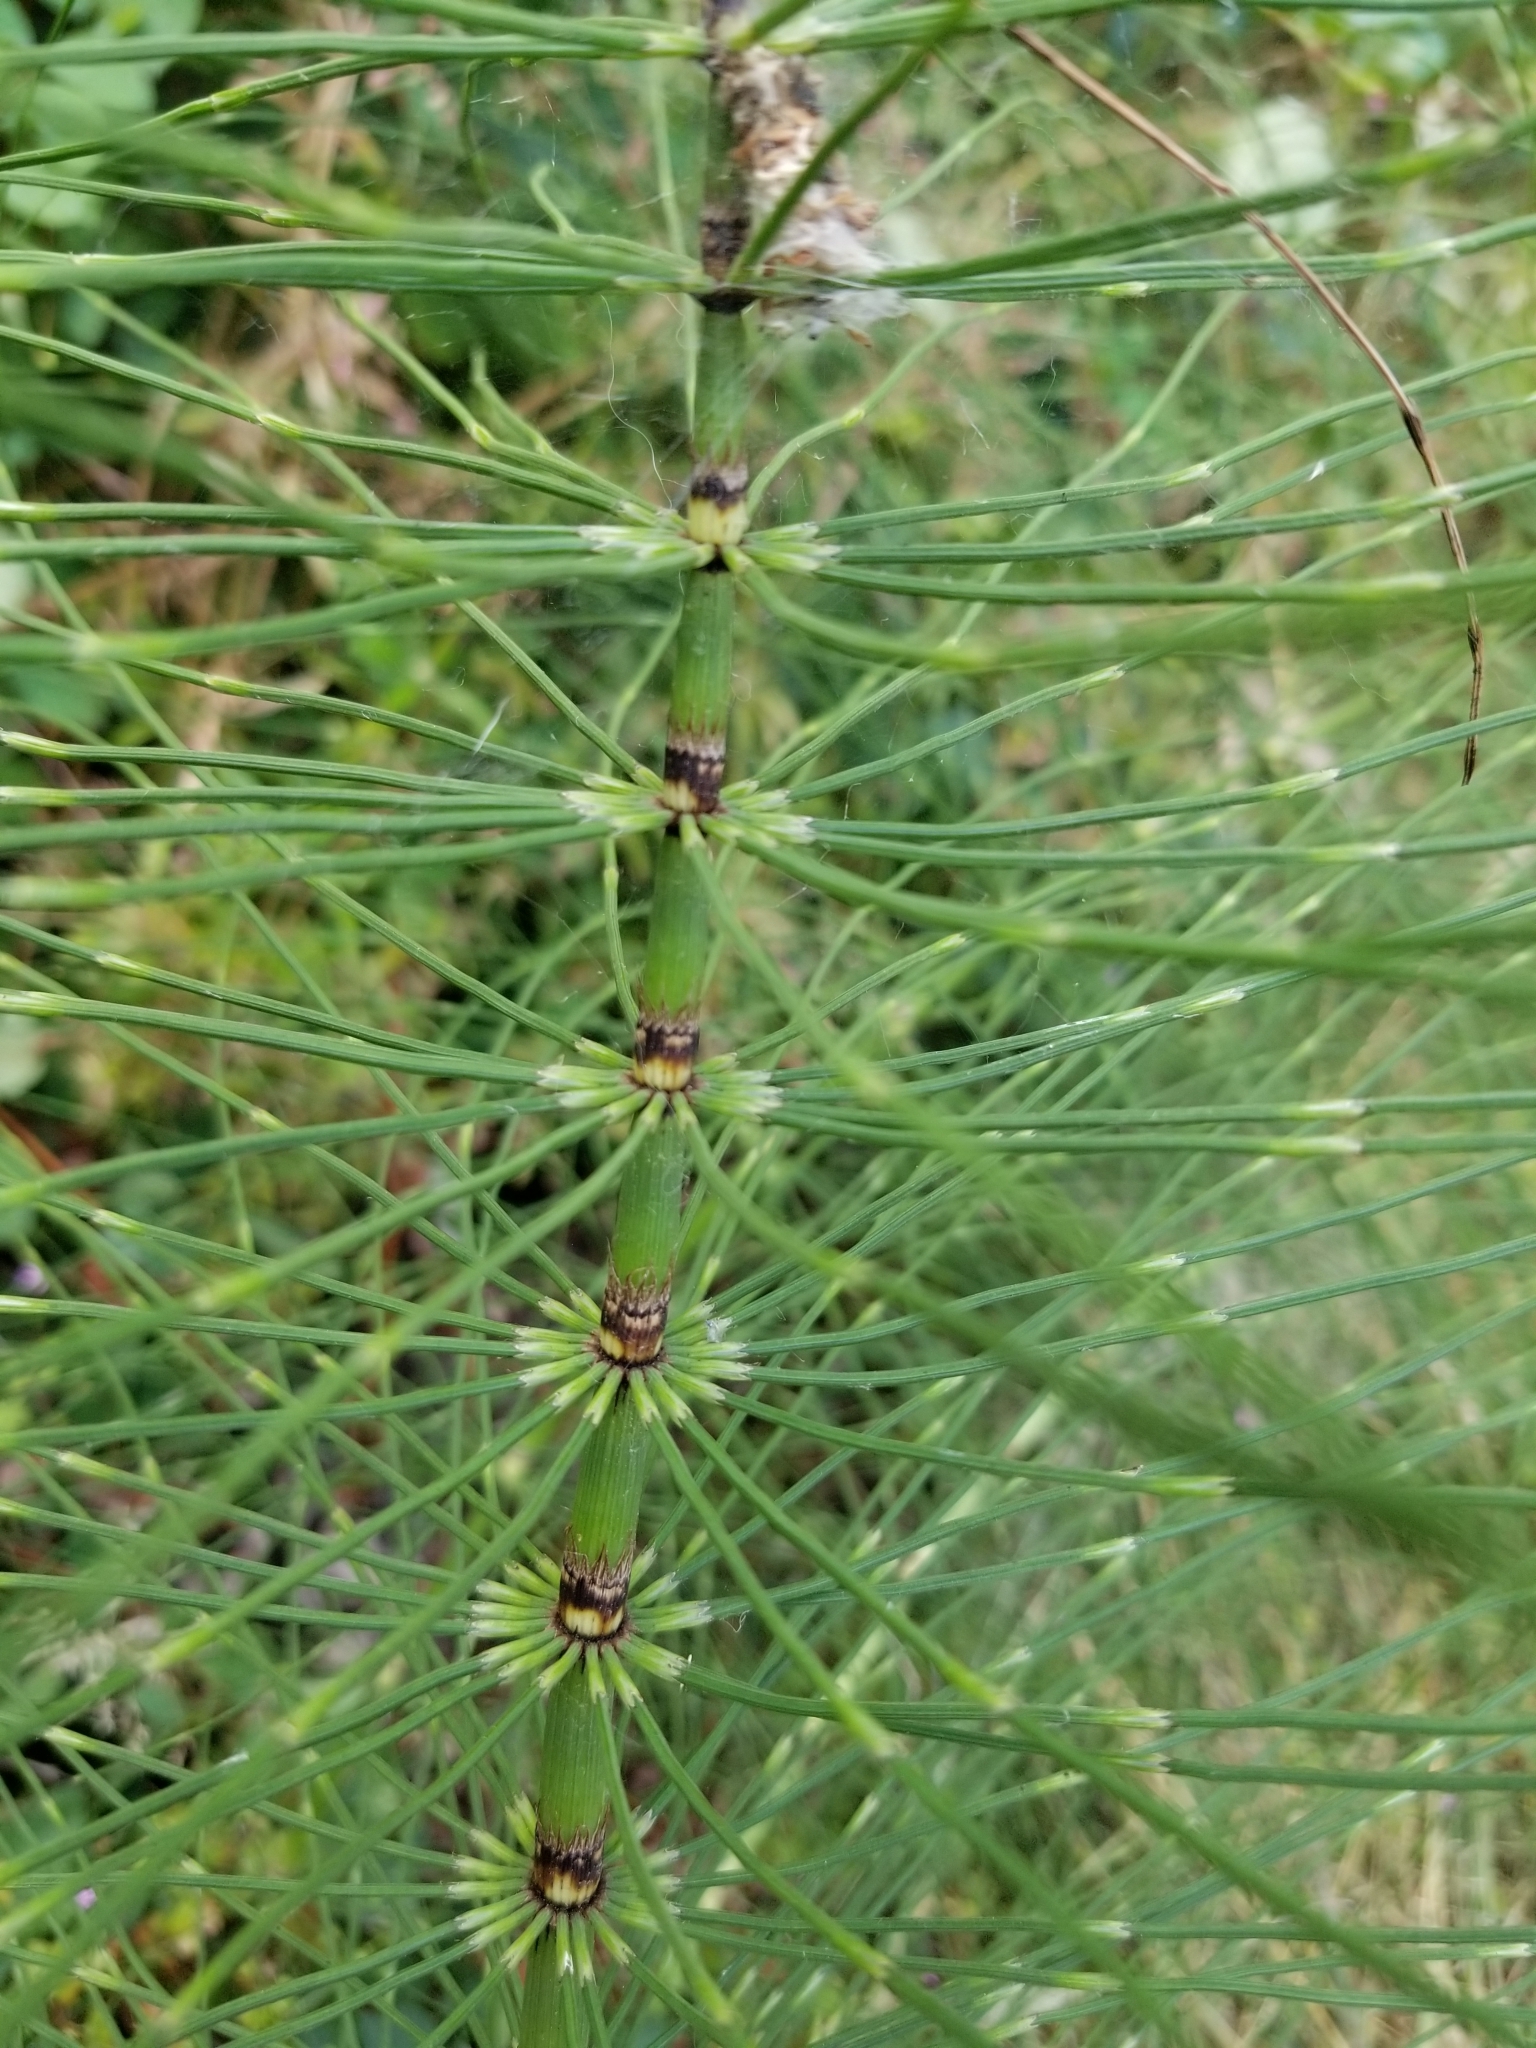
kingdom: Plantae
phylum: Tracheophyta
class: Polypodiopsida
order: Equisetales
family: Equisetaceae
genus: Equisetum
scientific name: Equisetum telmateia
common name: Great horsetail
